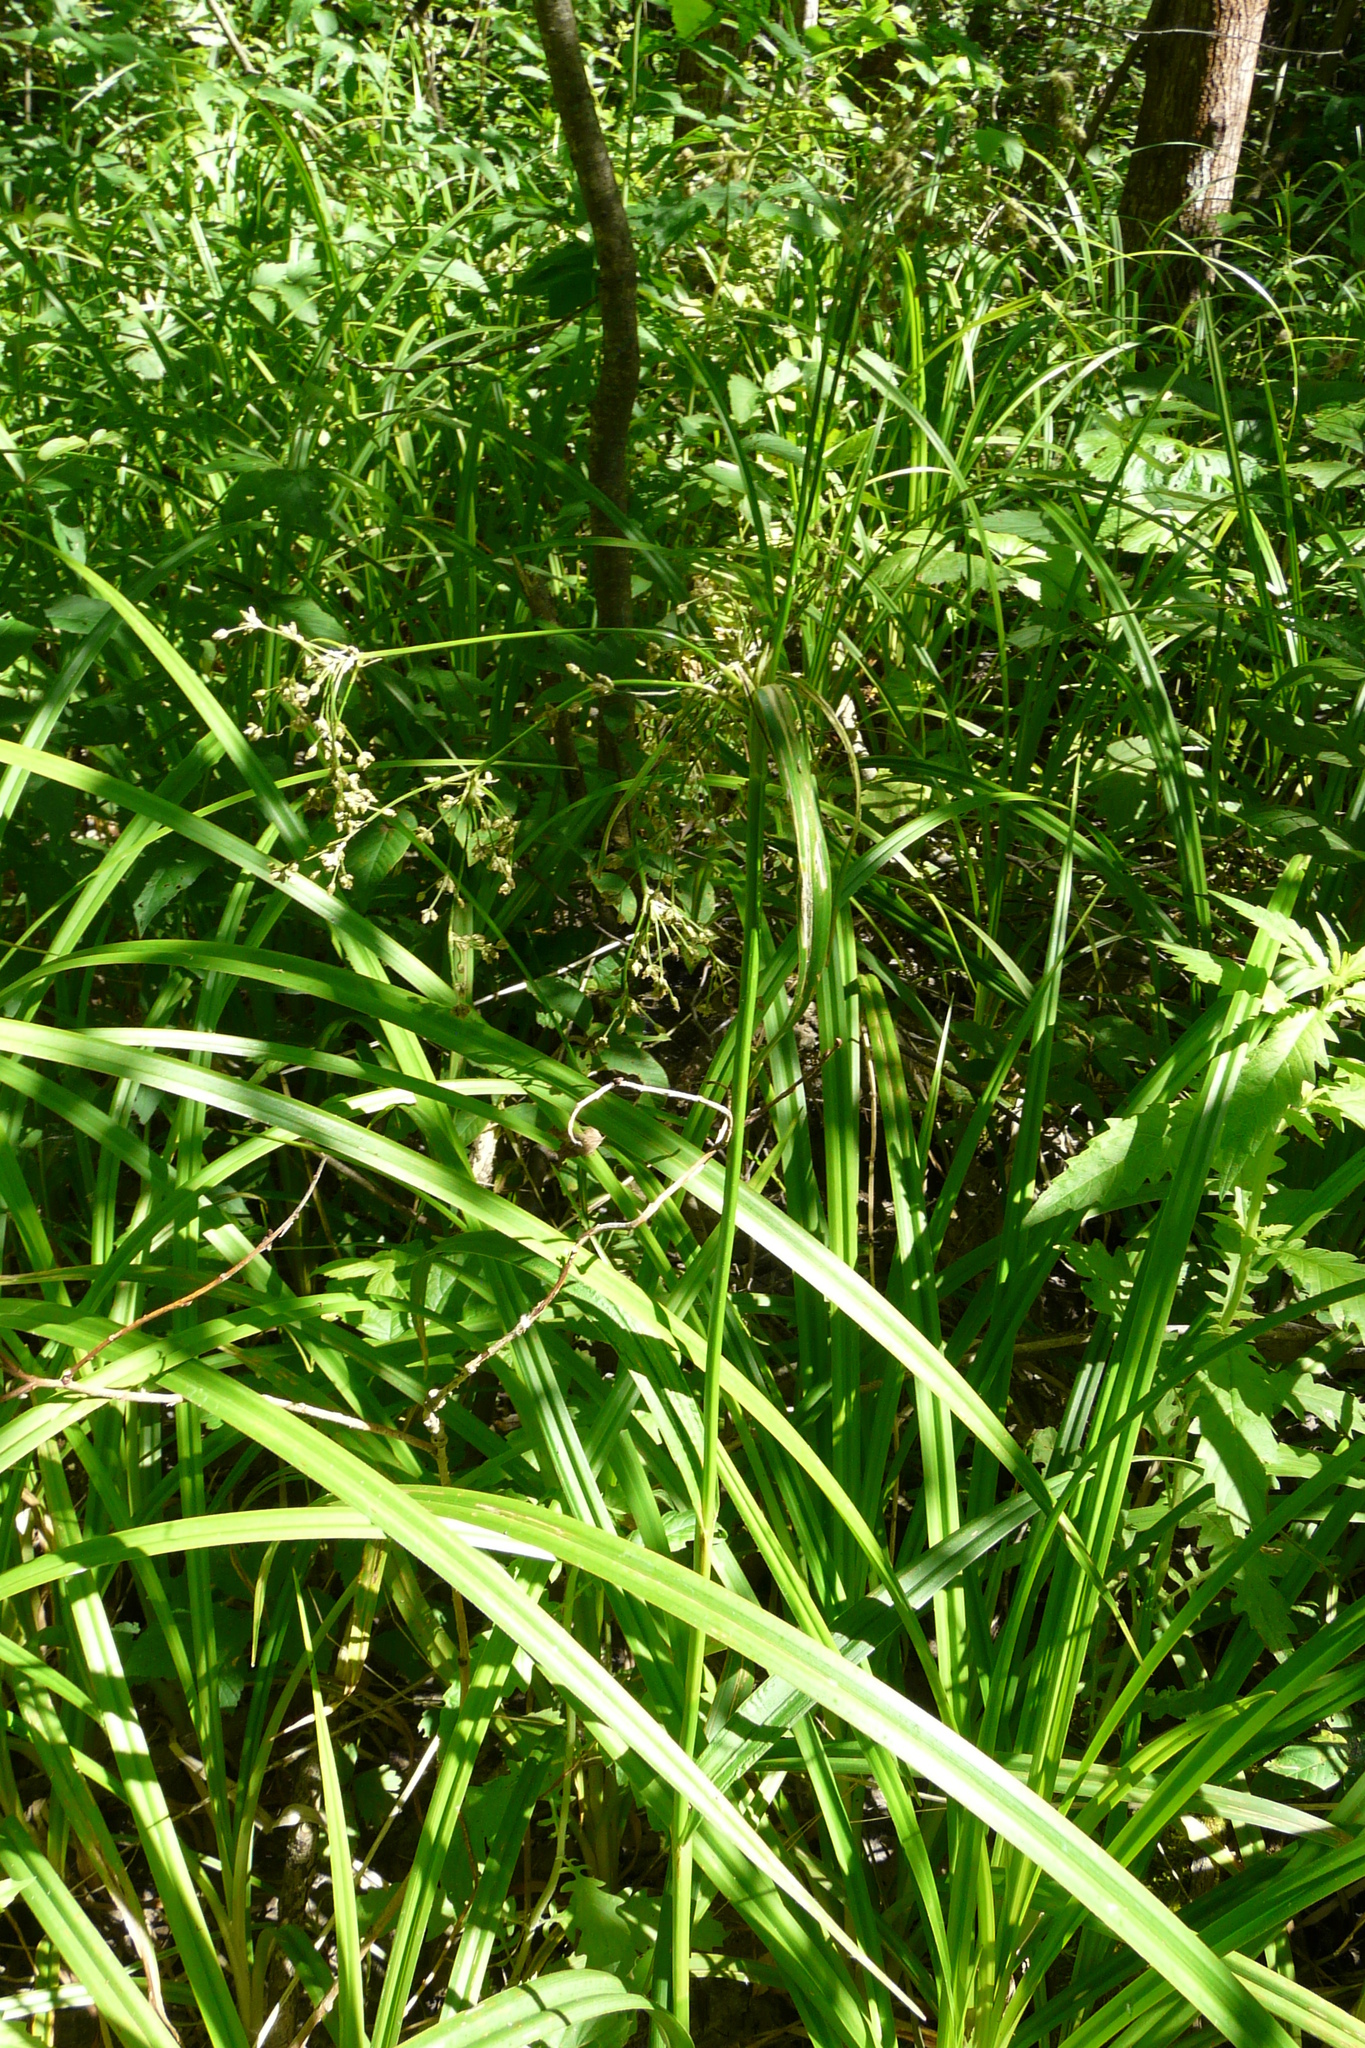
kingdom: Plantae
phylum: Tracheophyta
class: Liliopsida
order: Poales
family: Cyperaceae
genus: Scirpus
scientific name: Scirpus sylvaticus
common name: Wood club-rush
